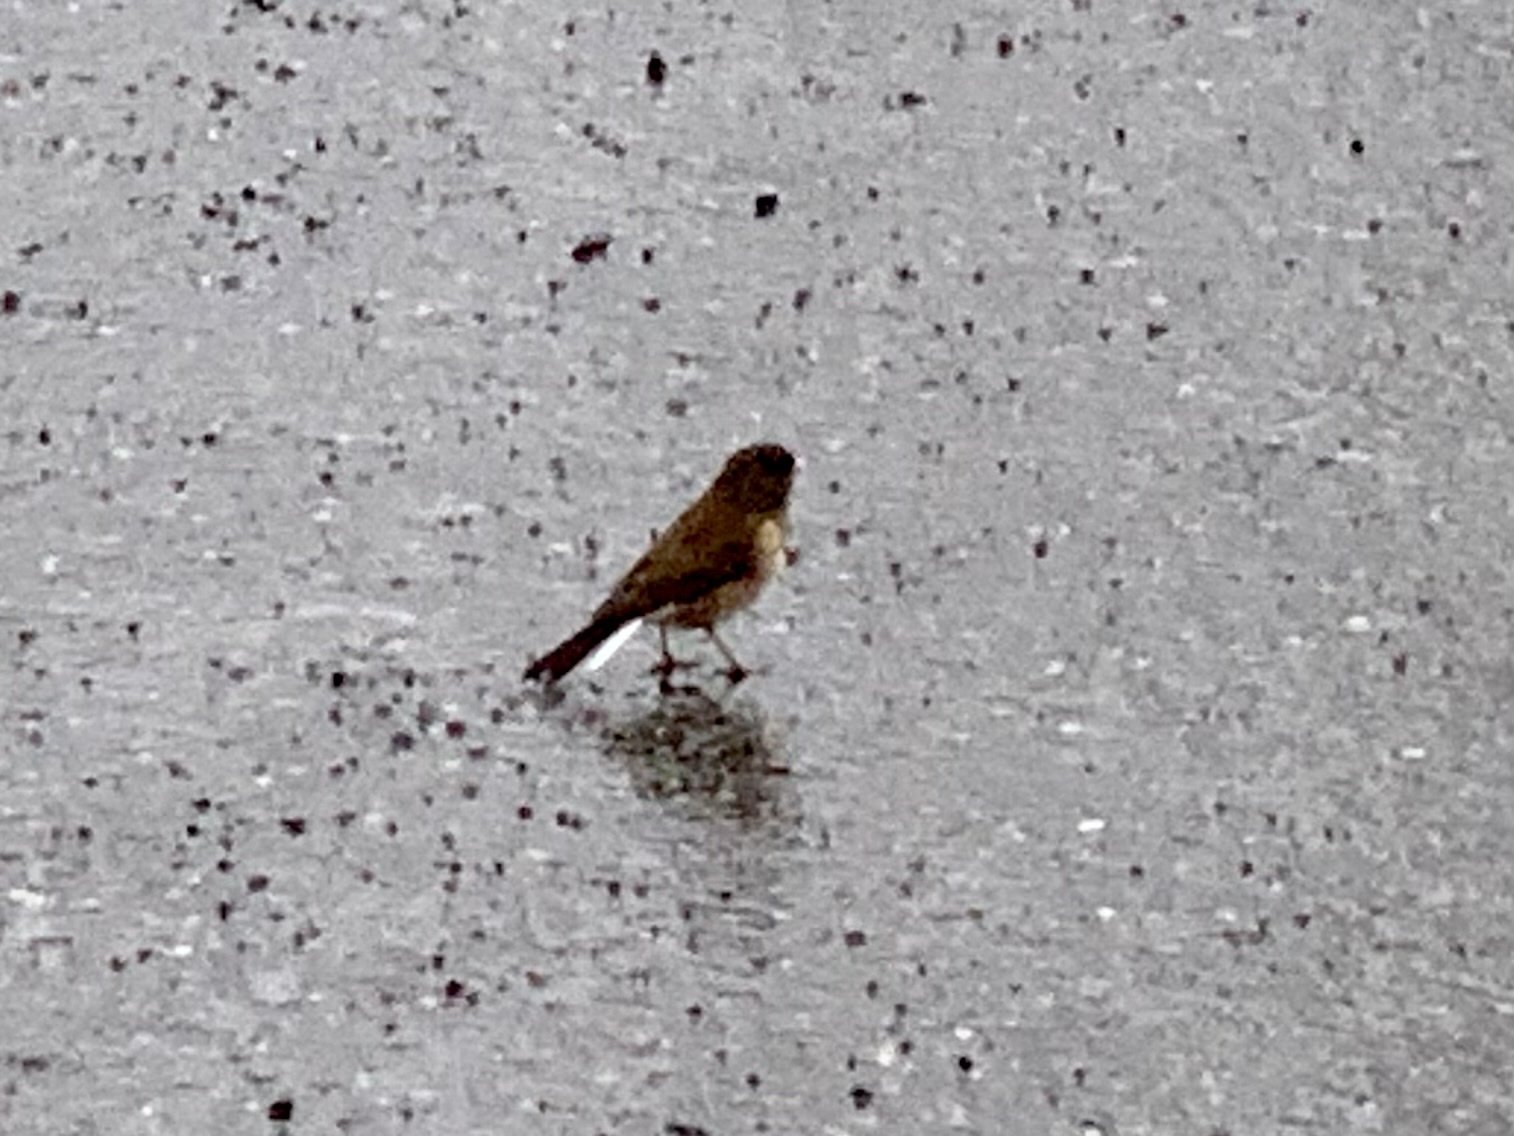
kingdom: Animalia
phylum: Chordata
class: Aves
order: Passeriformes
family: Passerellidae
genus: Junco
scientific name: Junco hyemalis
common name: Dark-eyed junco
